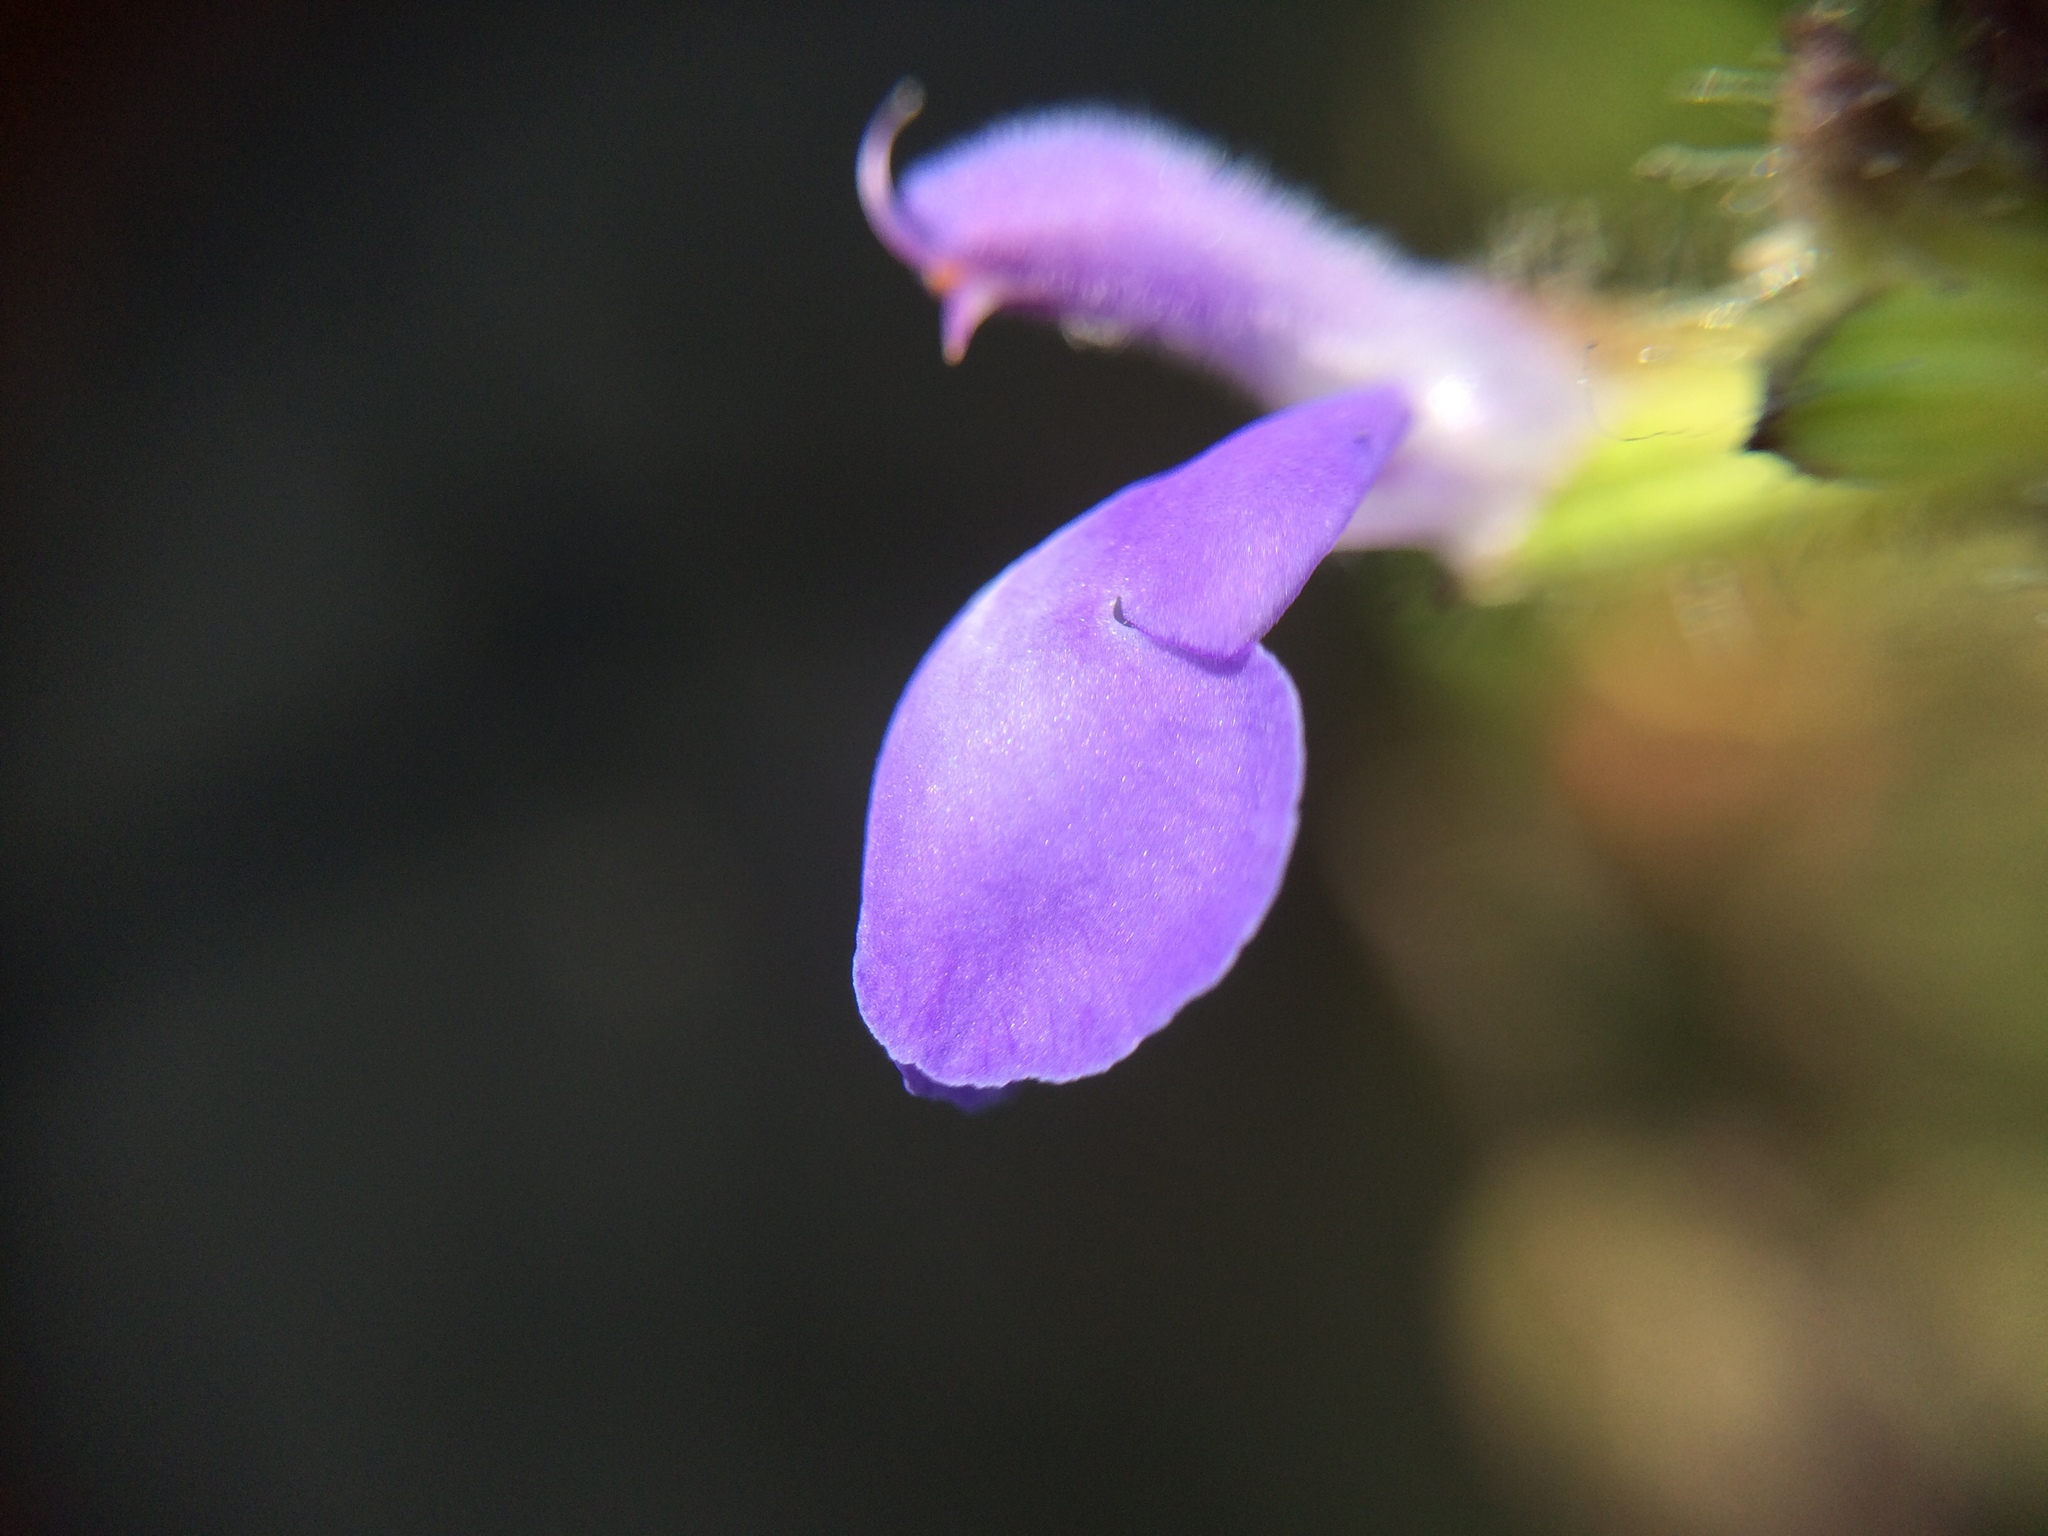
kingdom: Plantae
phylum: Tracheophyta
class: Magnoliopsida
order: Lamiales
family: Lamiaceae
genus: Salvia
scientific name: Salvia circinnata
